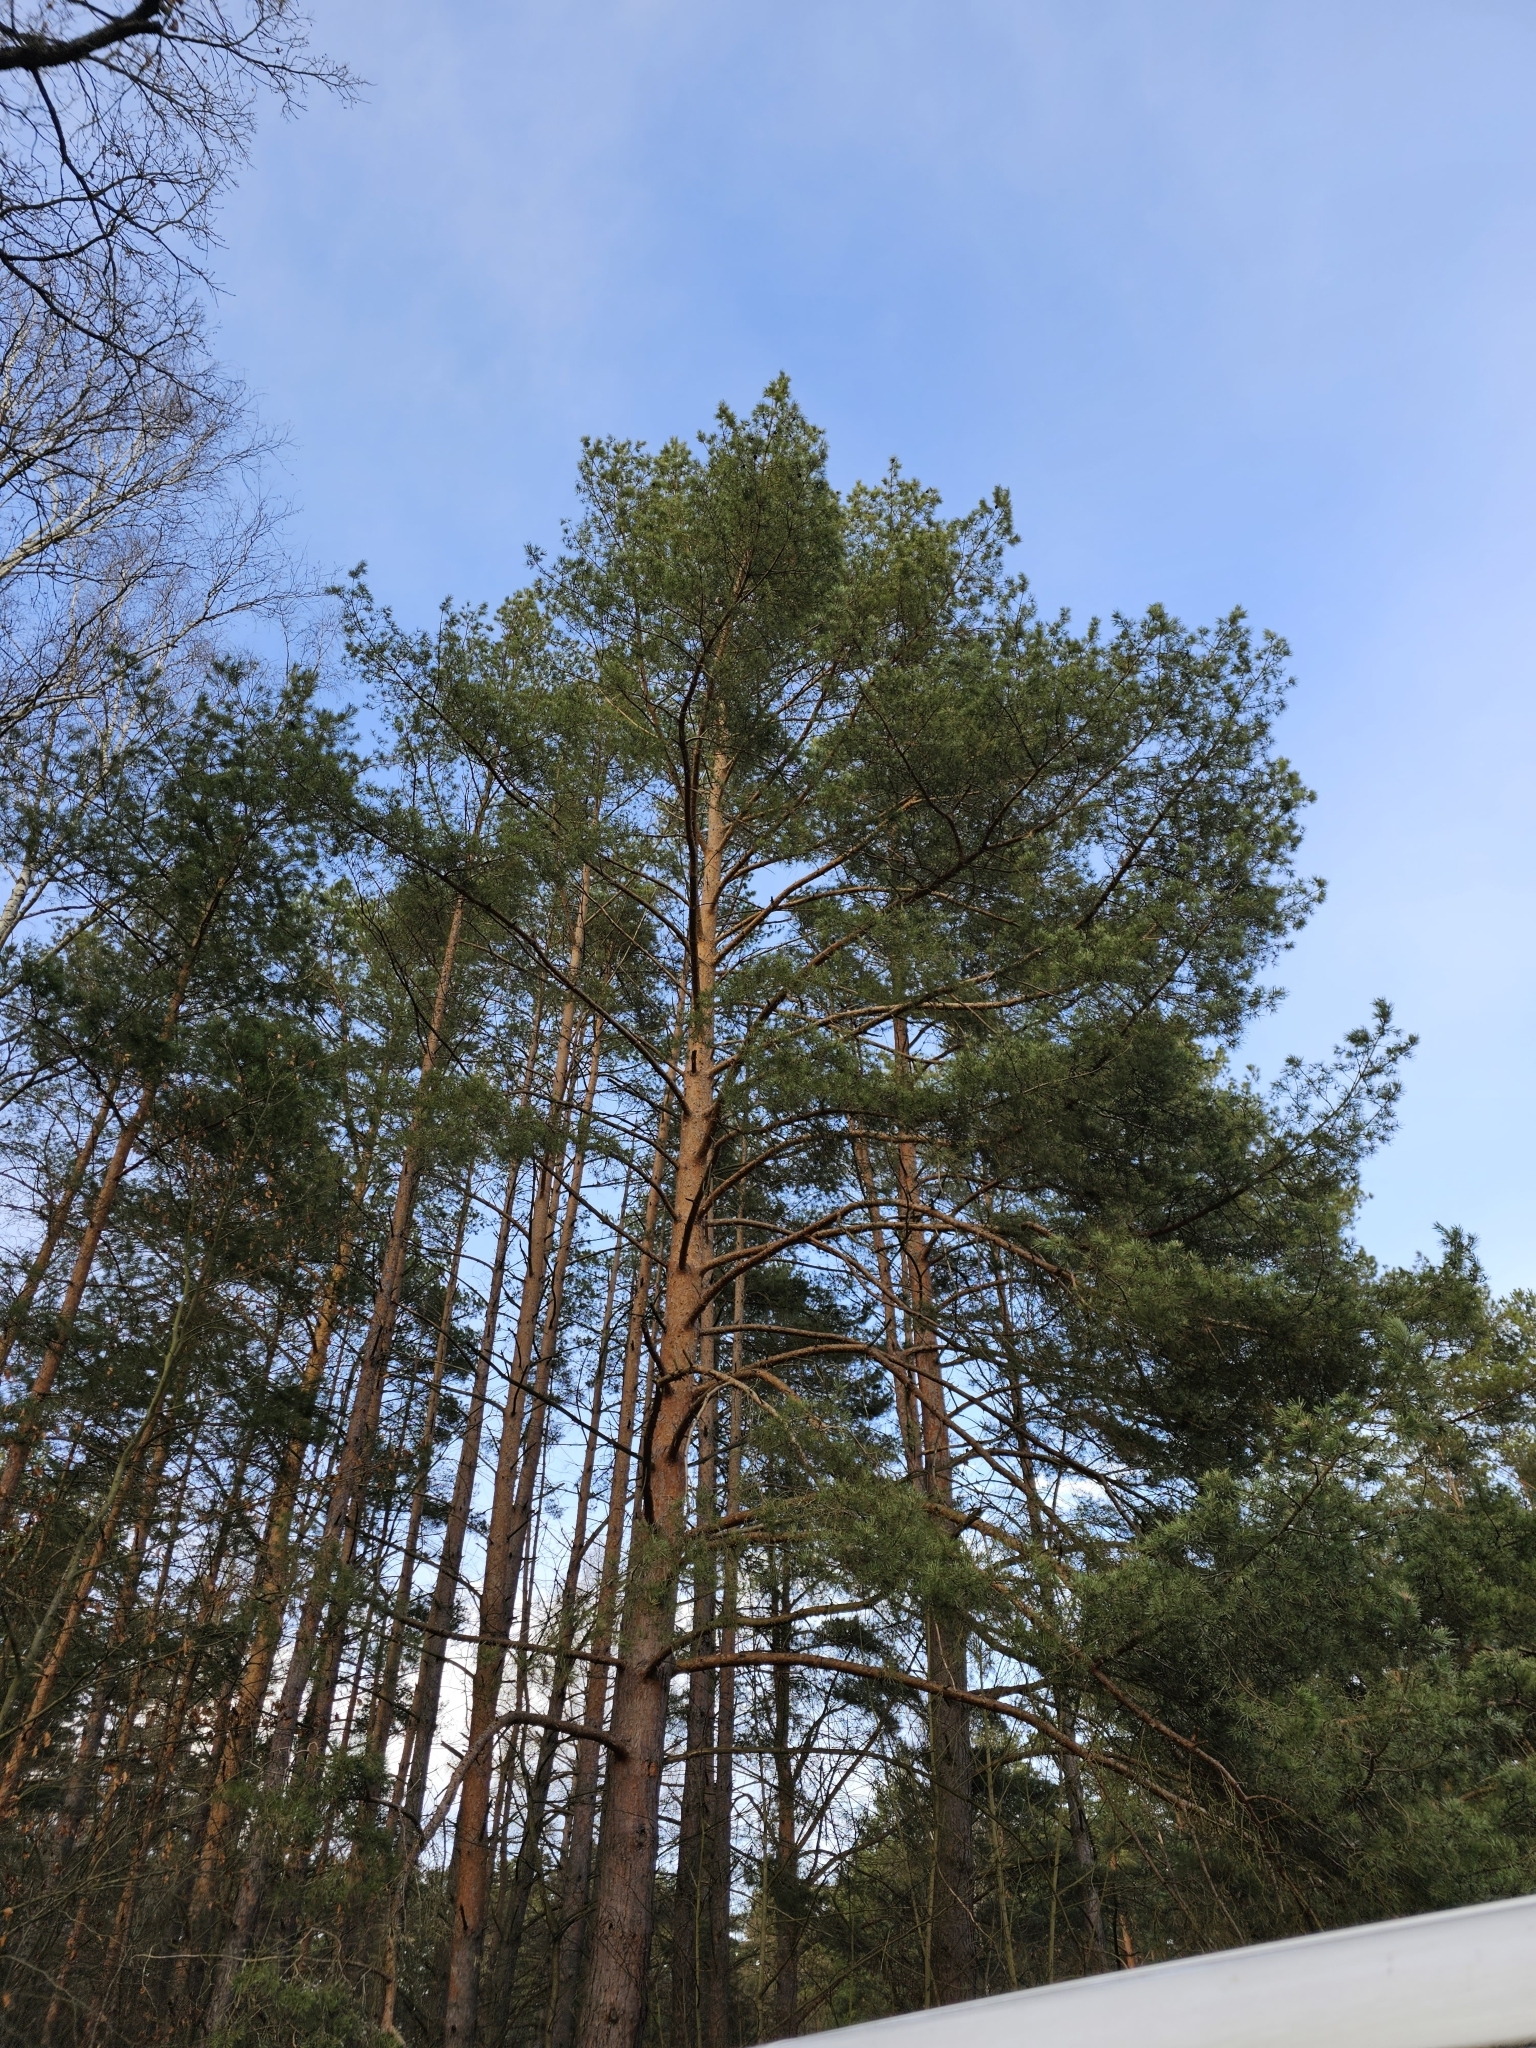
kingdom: Plantae
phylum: Tracheophyta
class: Pinopsida
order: Pinales
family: Pinaceae
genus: Pinus
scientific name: Pinus sylvestris
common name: Scots pine
